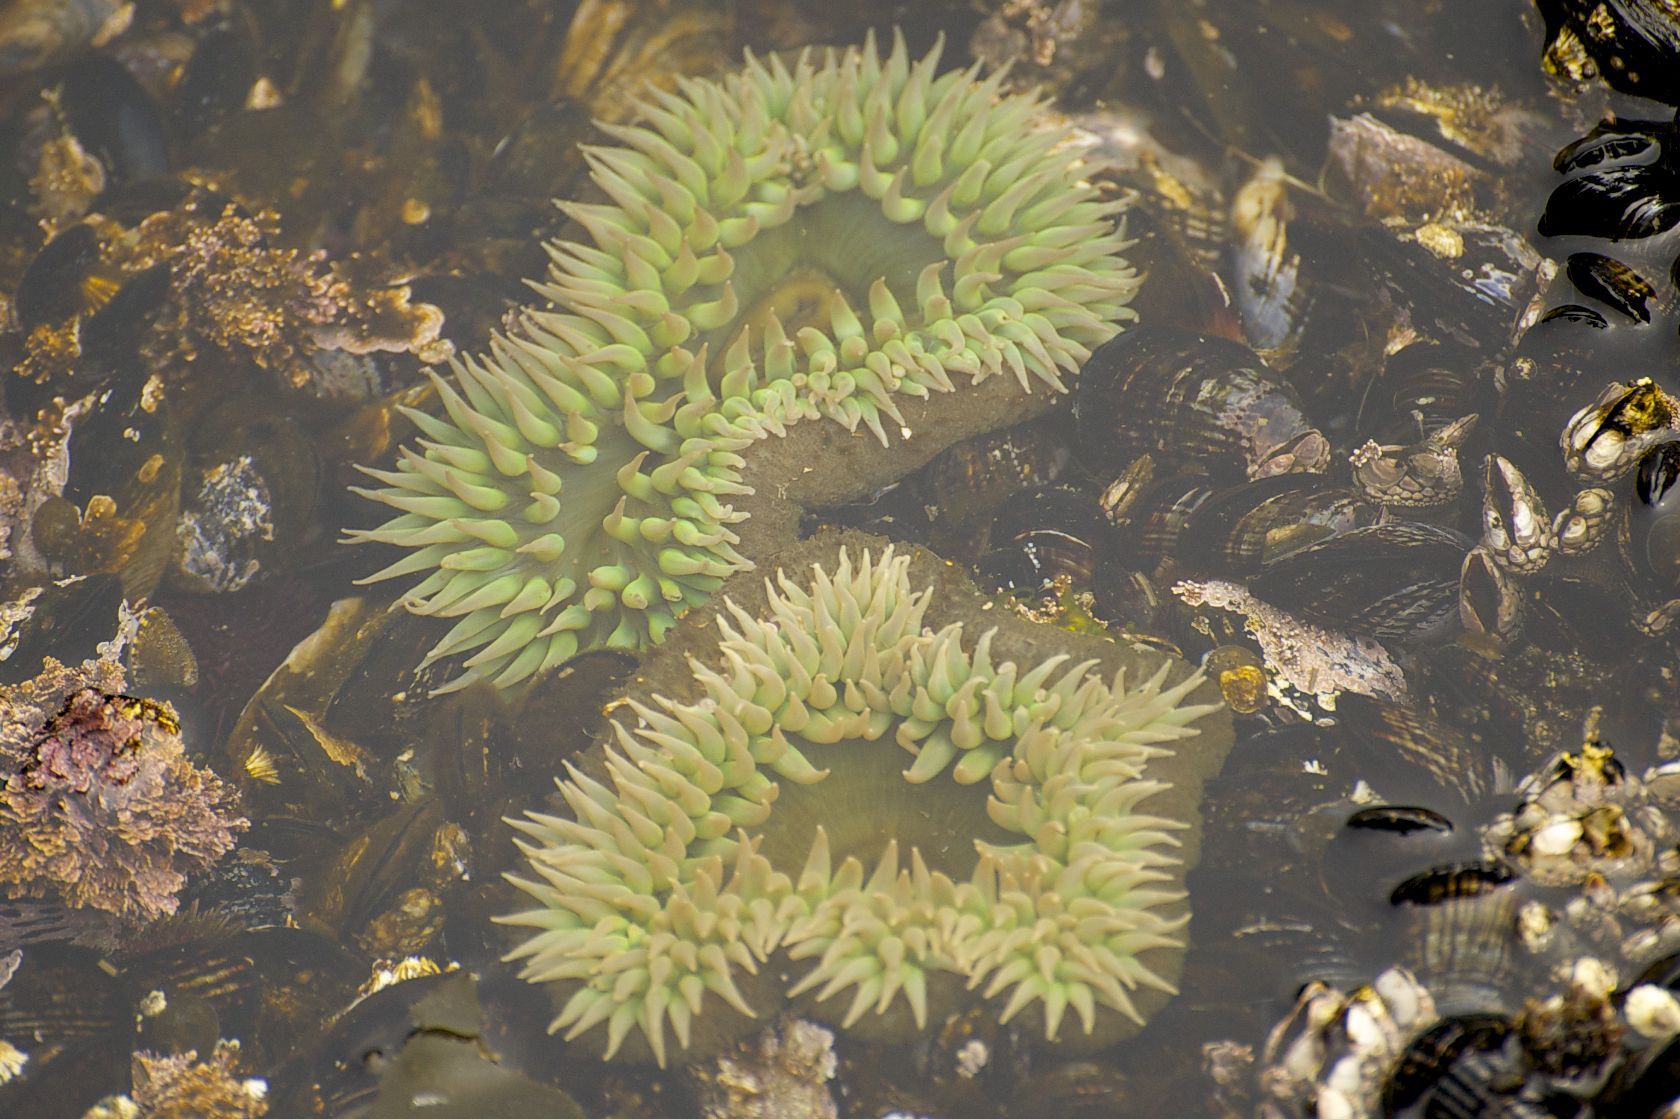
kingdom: Animalia
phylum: Cnidaria
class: Anthozoa
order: Actiniaria
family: Actiniidae
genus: Anthopleura
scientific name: Anthopleura xanthogrammica
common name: Giant green anemone
